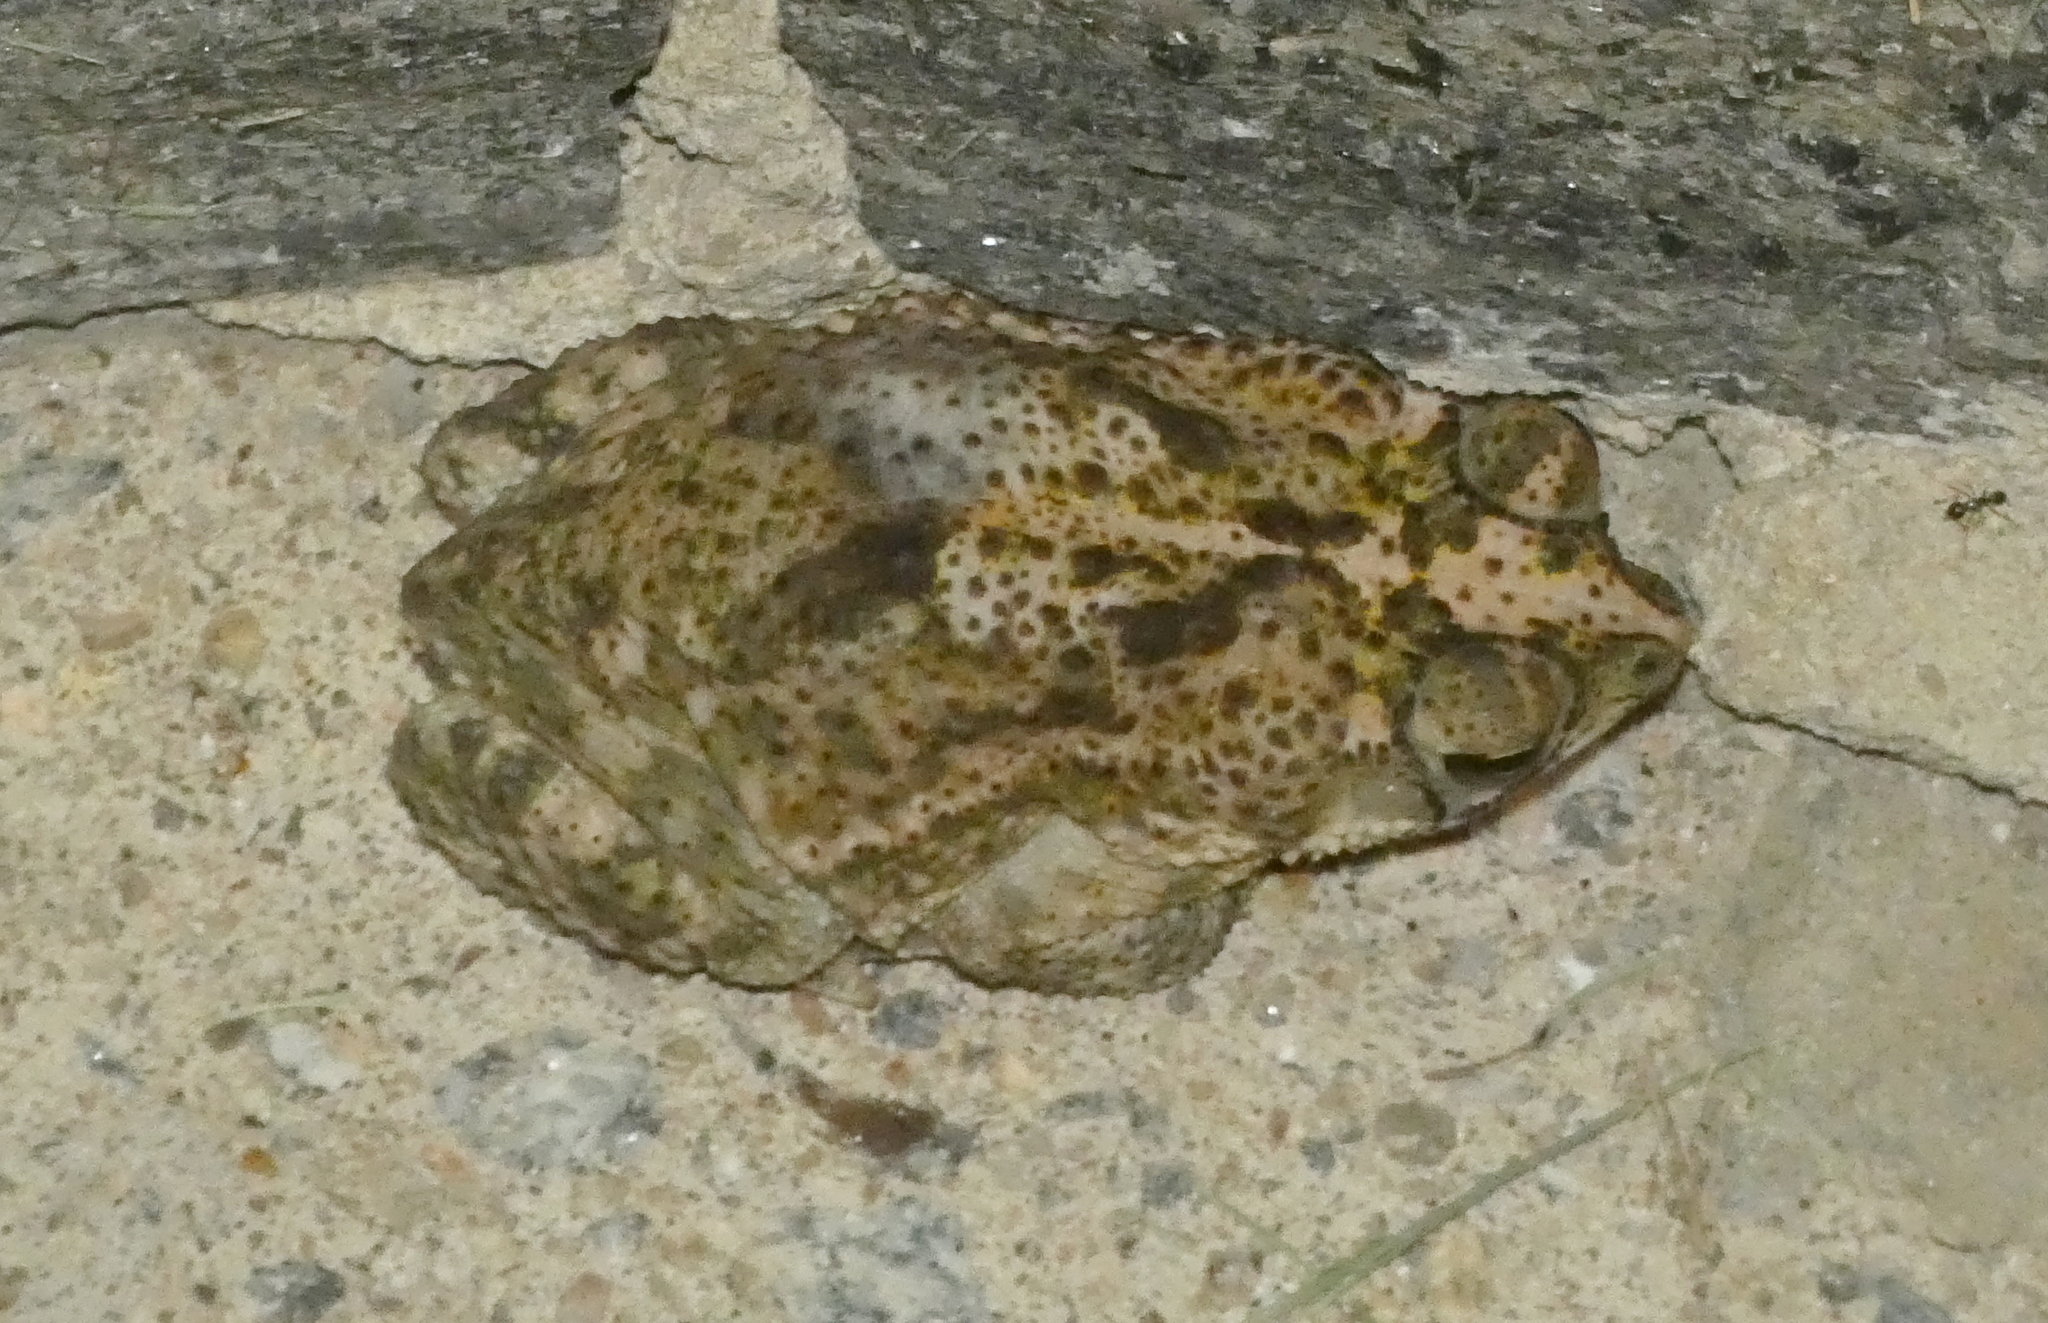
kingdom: Animalia
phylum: Chordata
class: Amphibia
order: Anura
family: Bufonidae
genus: Rhinella
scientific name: Rhinella granulosa
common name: Common lesser toad
